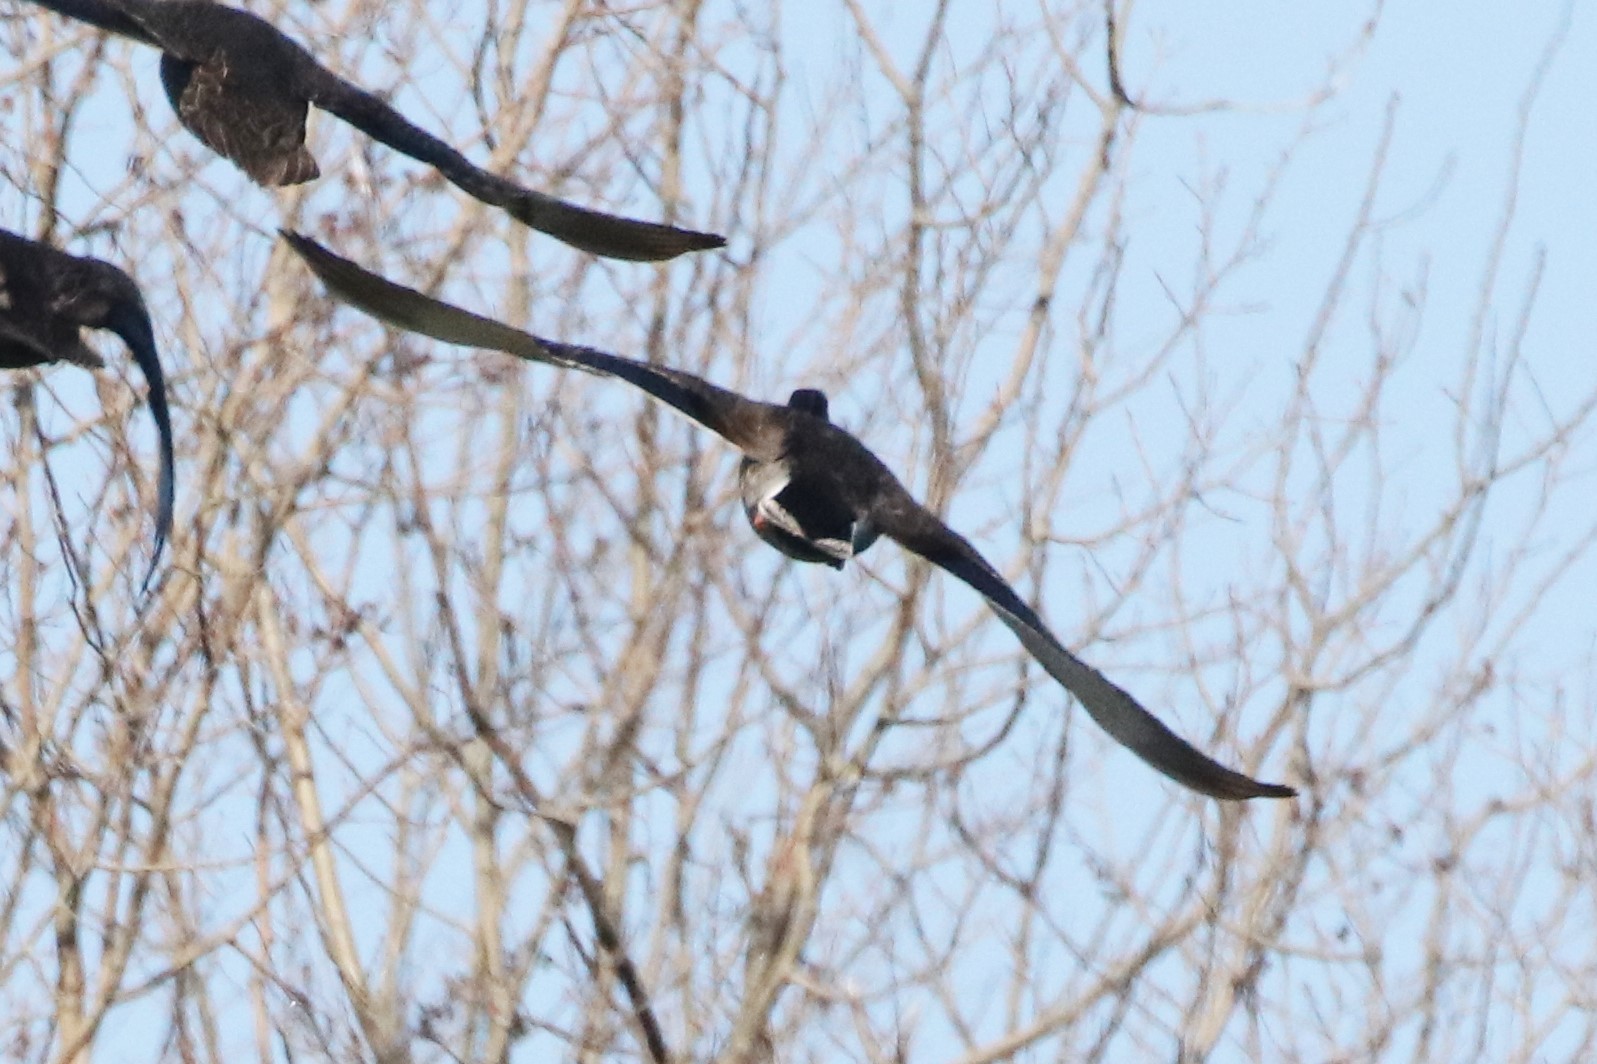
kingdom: Animalia
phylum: Chordata
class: Aves
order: Anseriformes
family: Anatidae
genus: Anas
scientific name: Anas platyrhynchos
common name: Mallard
